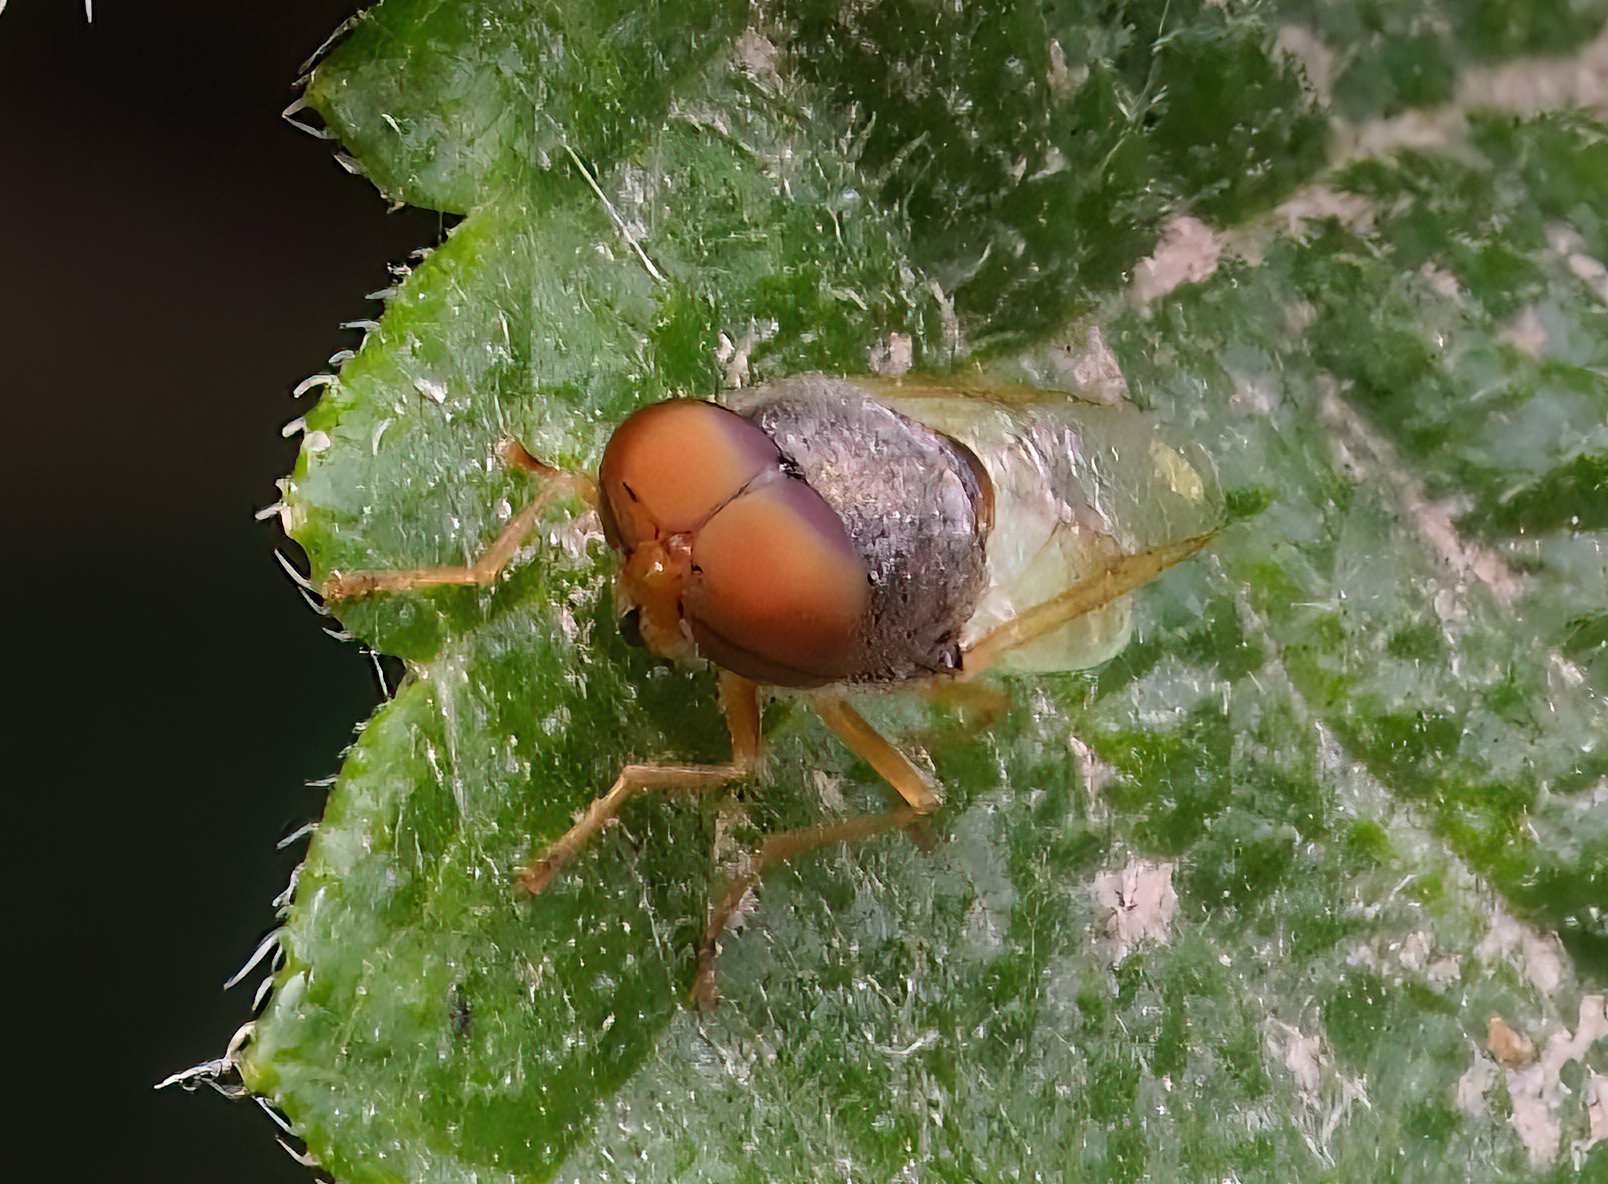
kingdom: Animalia
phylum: Arthropoda
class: Insecta
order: Diptera
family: Stratiomyidae
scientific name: Stratiomyidae
